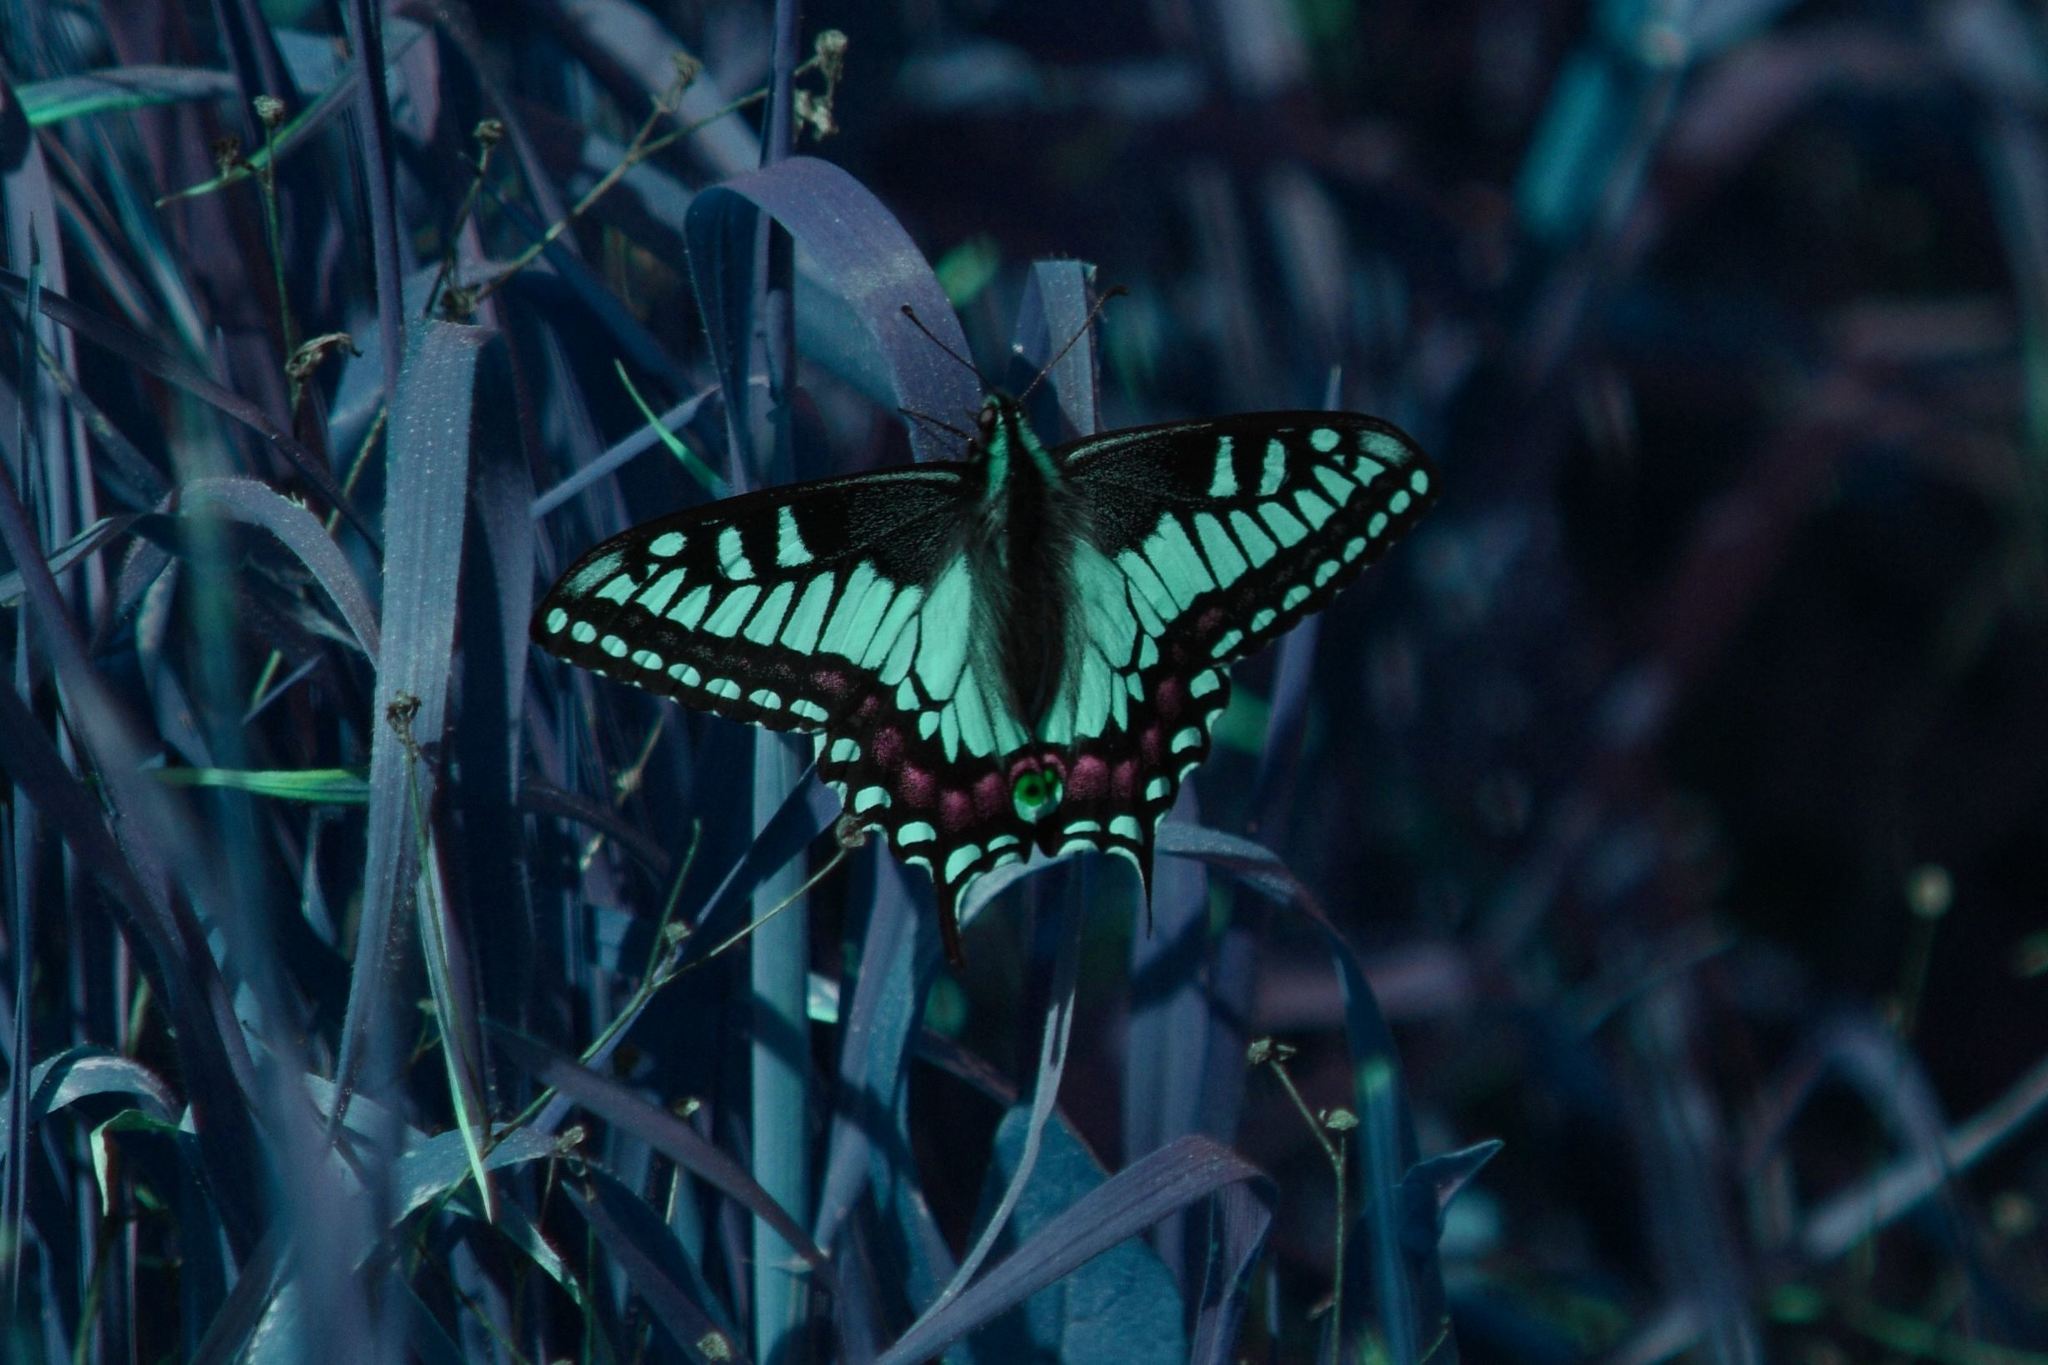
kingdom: Animalia
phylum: Arthropoda
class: Insecta
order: Lepidoptera
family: Papilionidae
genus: Papilio
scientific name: Papilio zelicaon
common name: Anise swallowtail
